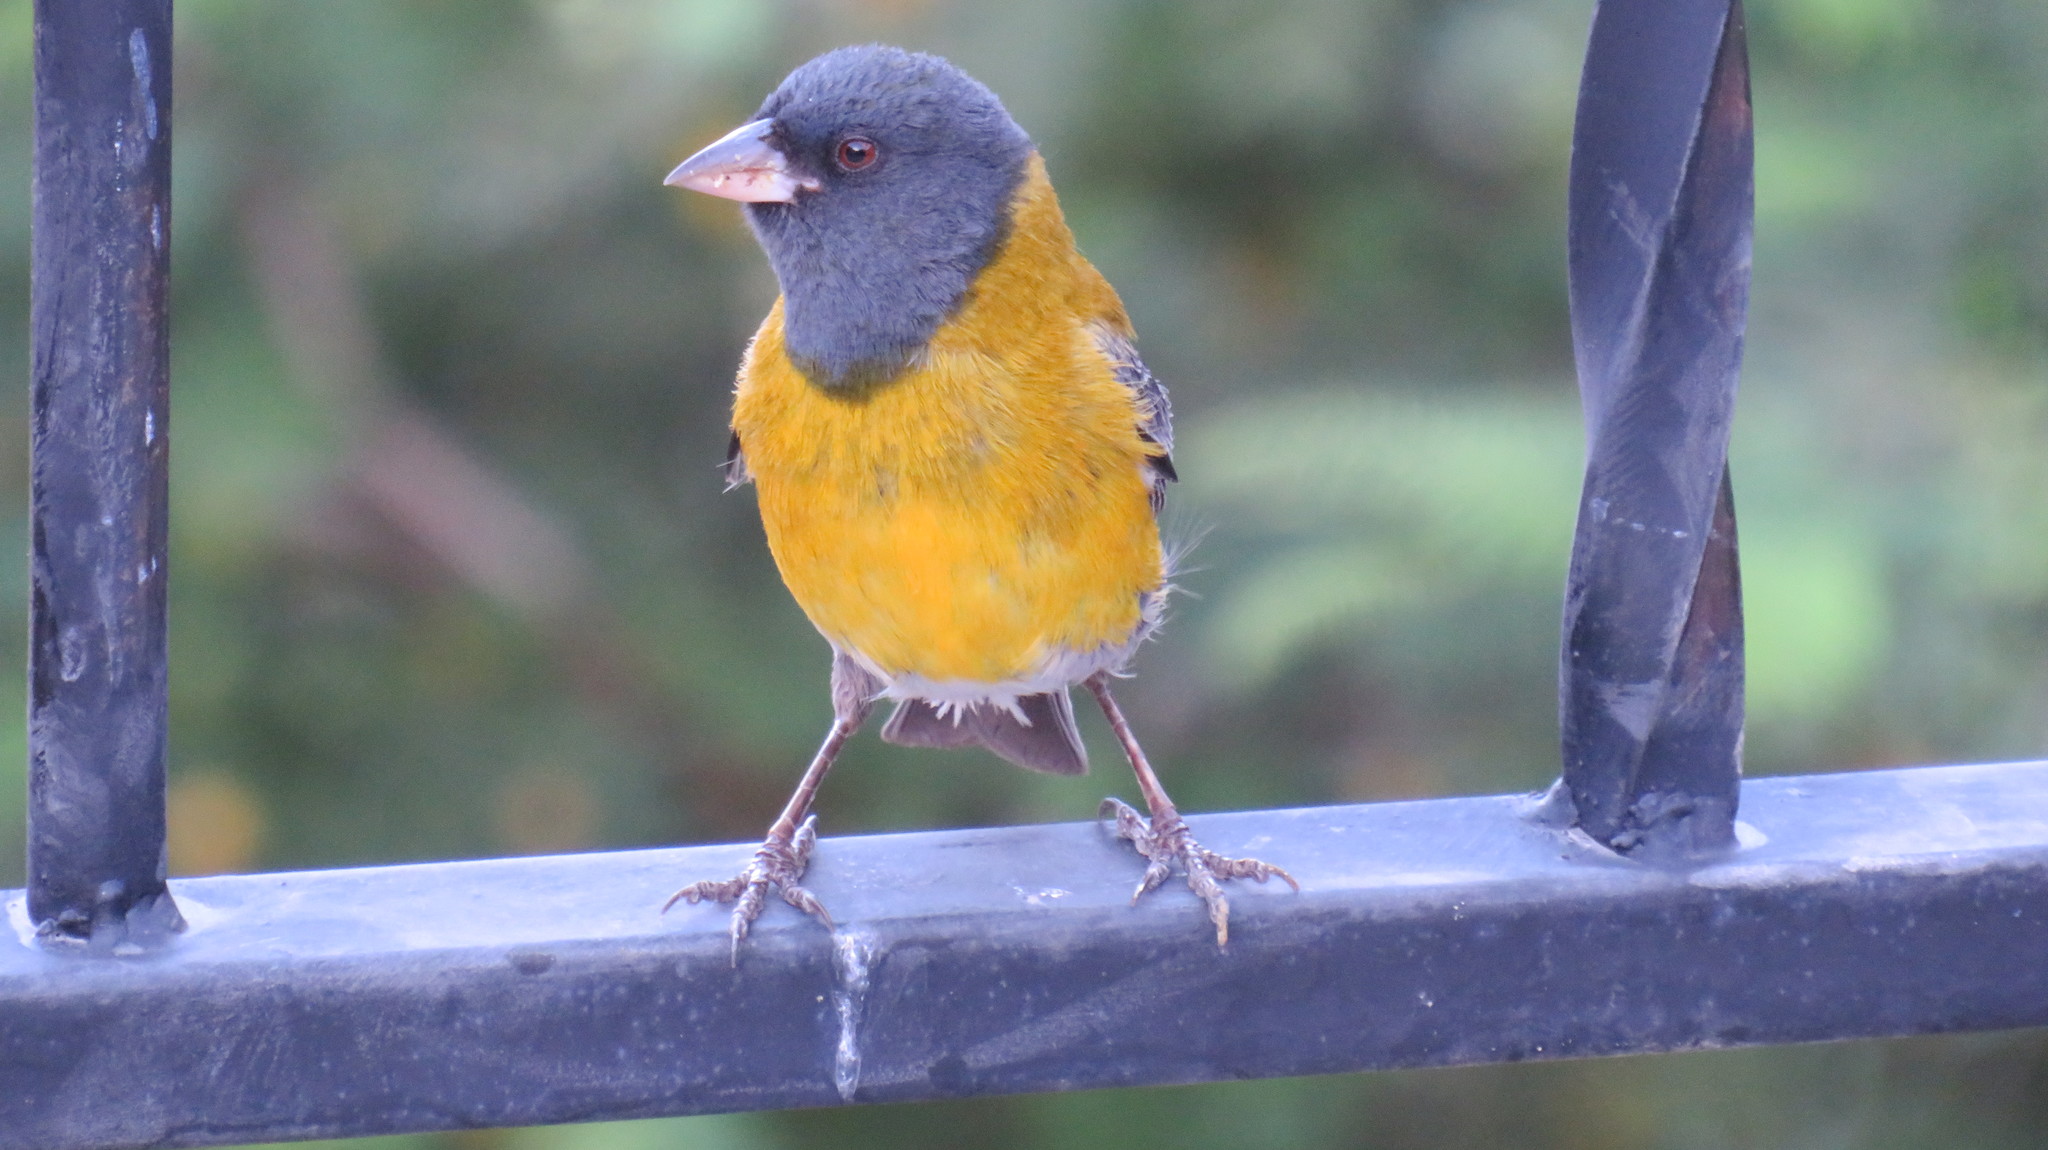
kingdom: Animalia
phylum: Chordata
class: Aves
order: Passeriformes
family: Thraupidae
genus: Phrygilus
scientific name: Phrygilus gayi
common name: Grey-hooded sierra finch
